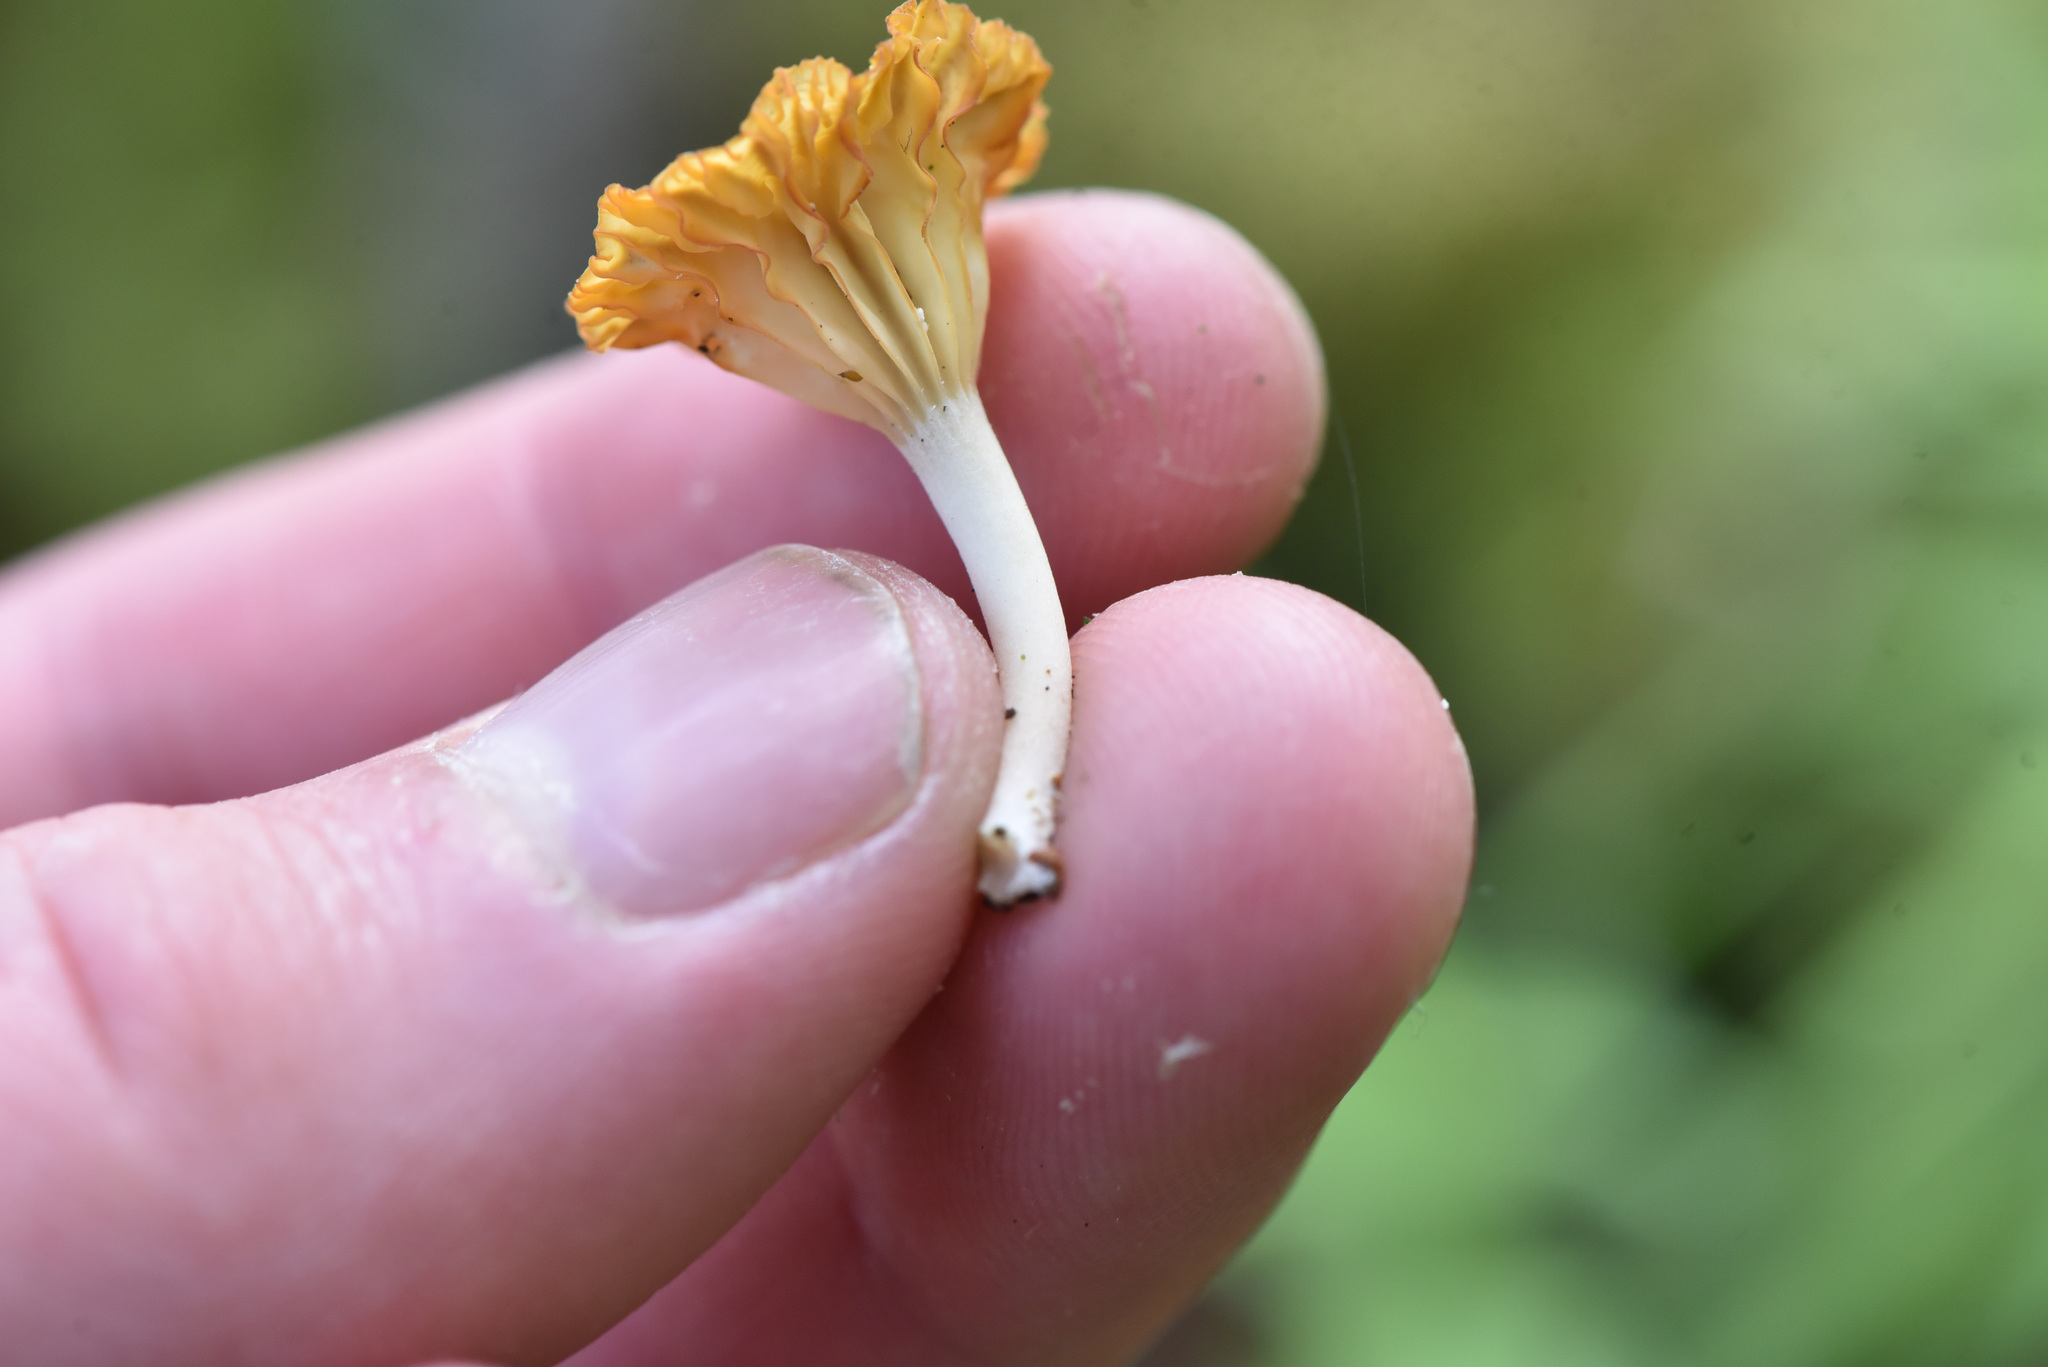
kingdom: Fungi
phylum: Basidiomycota
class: Agaricomycetes
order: Agaricales
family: Hygrophoraceae
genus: Lichenomphalia
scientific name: Lichenomphalia
